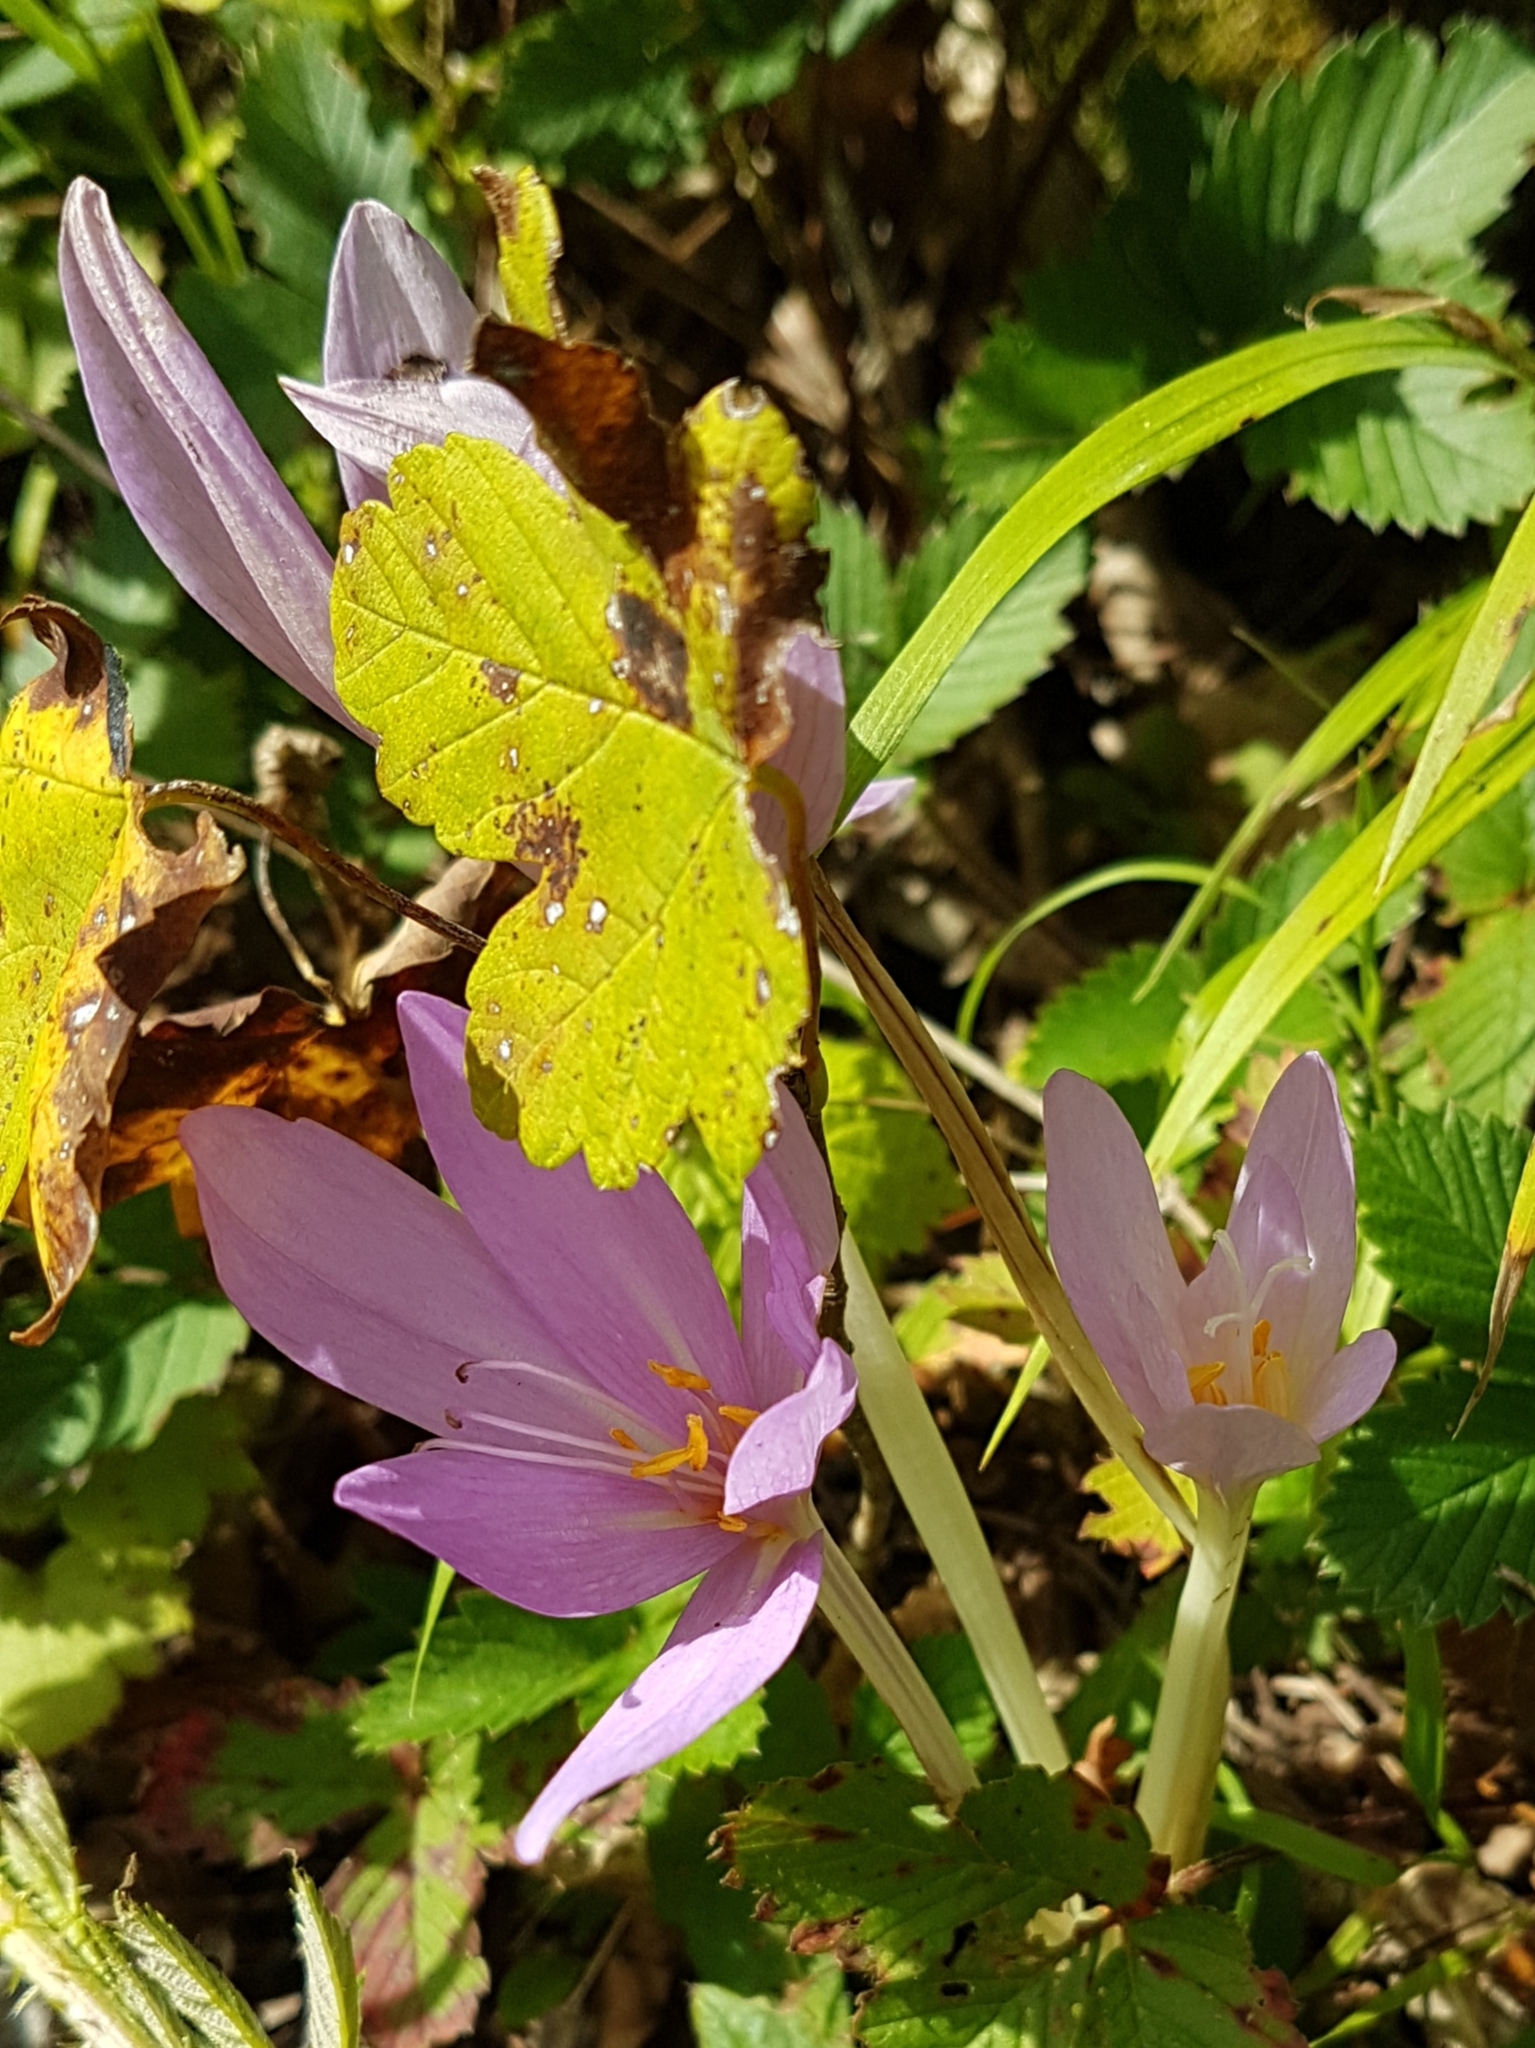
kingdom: Plantae
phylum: Tracheophyta
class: Liliopsida
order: Liliales
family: Colchicaceae
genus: Colchicum
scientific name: Colchicum autumnale
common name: Autumn crocus
